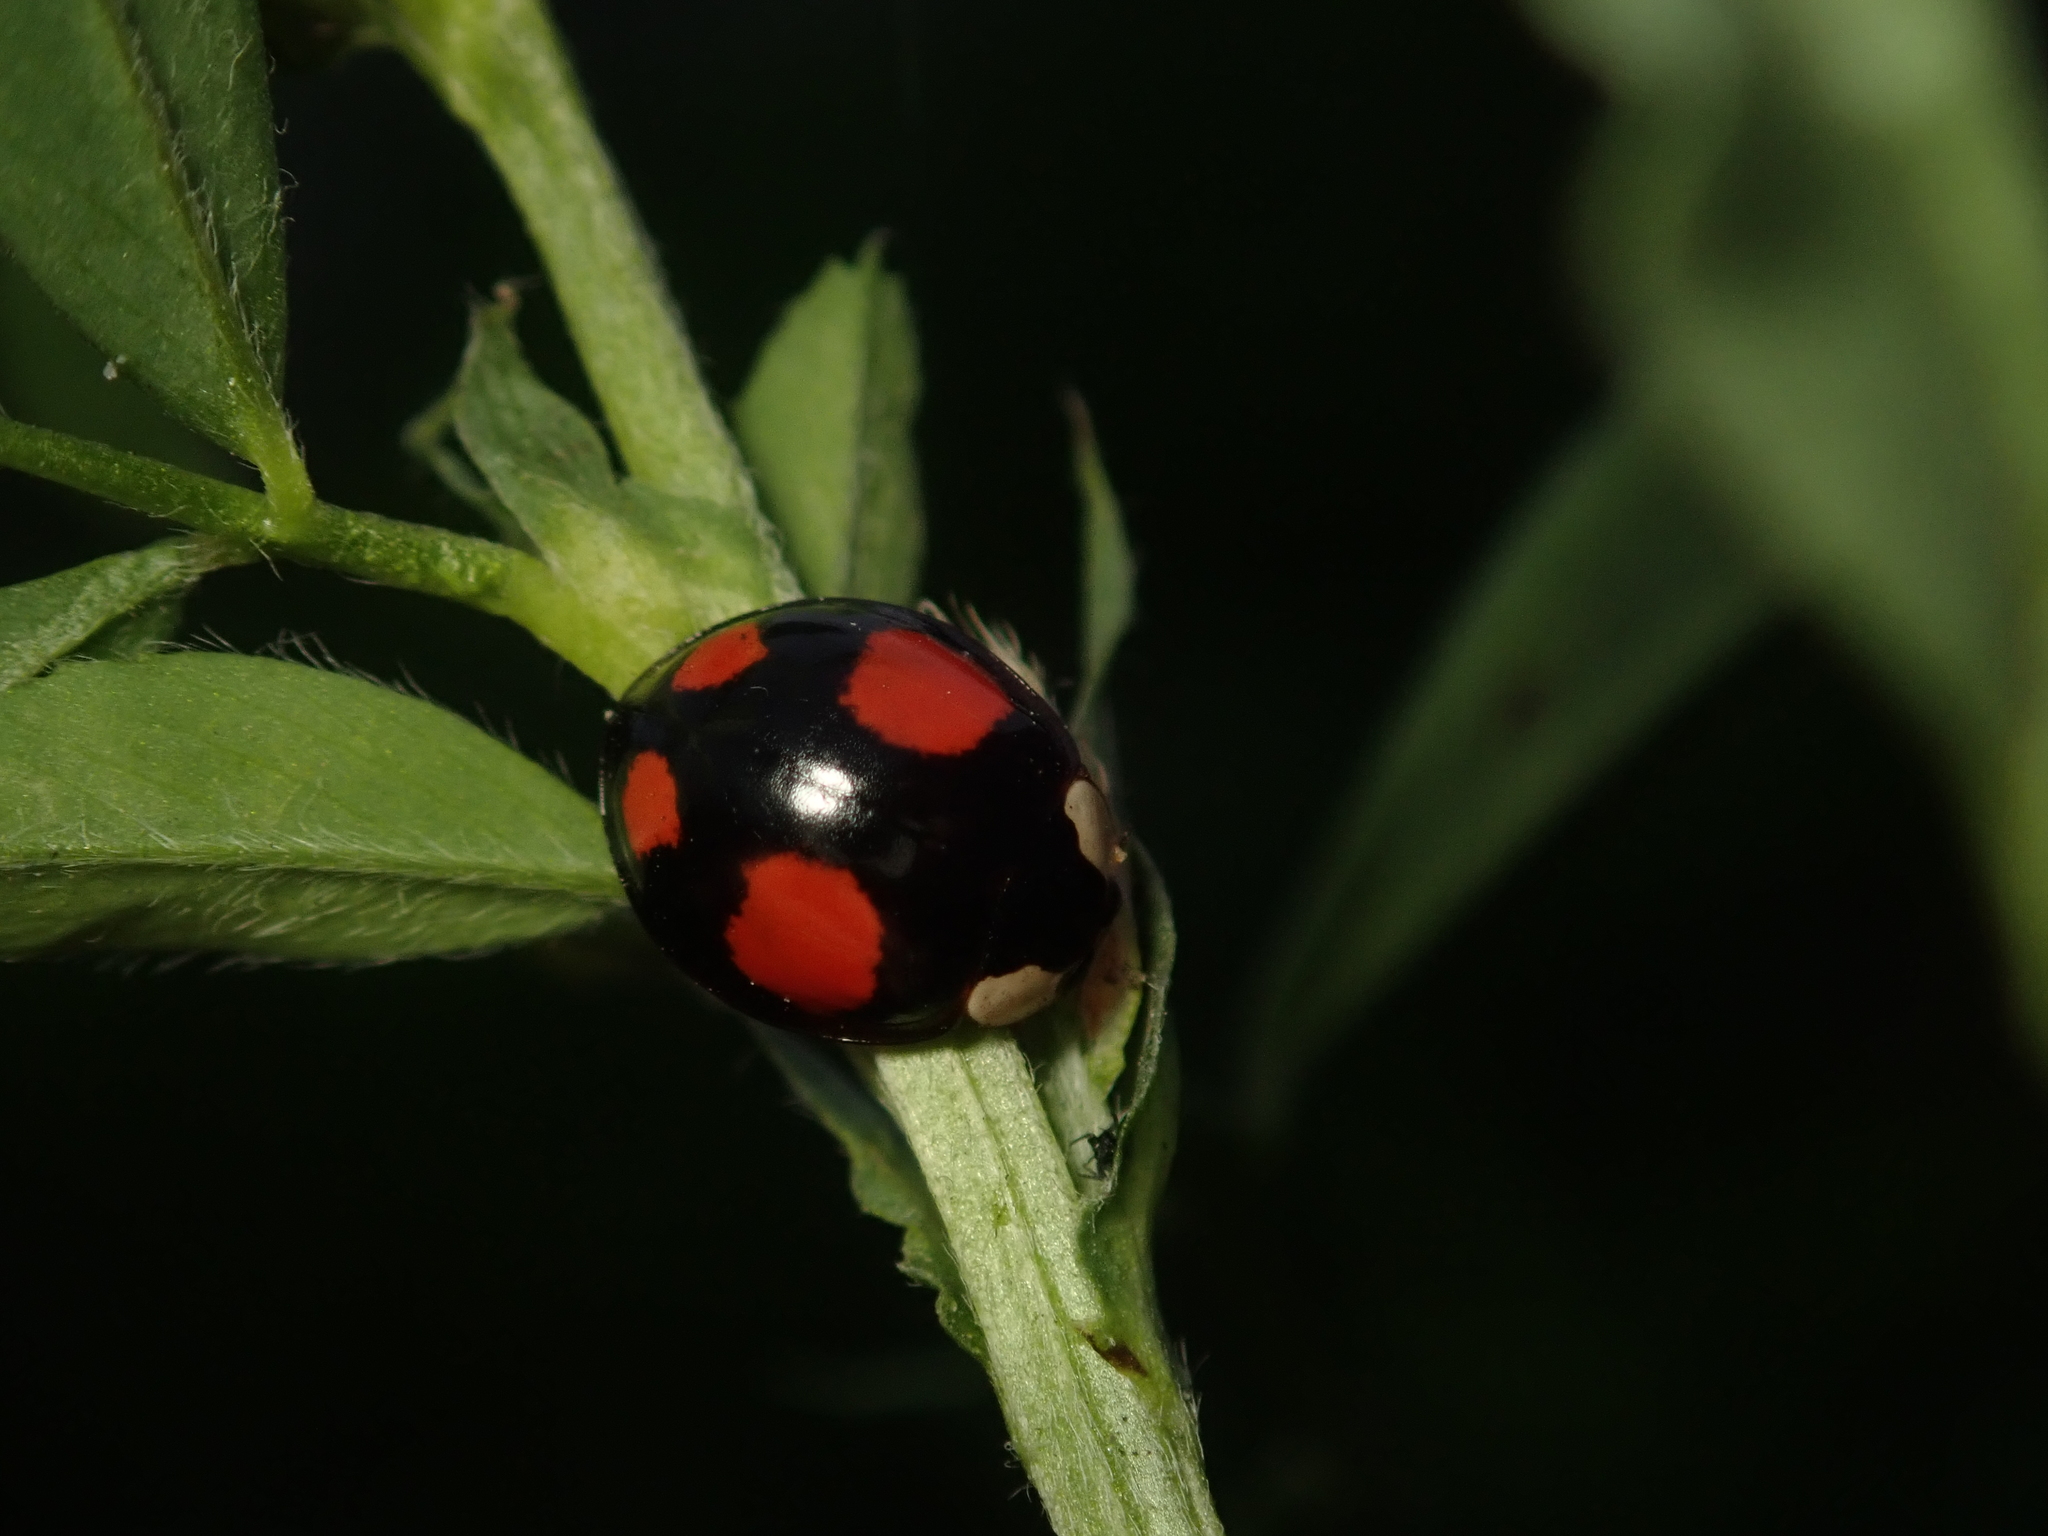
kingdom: Animalia
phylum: Arthropoda
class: Insecta
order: Coleoptera
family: Coccinellidae
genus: Harmonia
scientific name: Harmonia axyridis
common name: Harlequin ladybird
